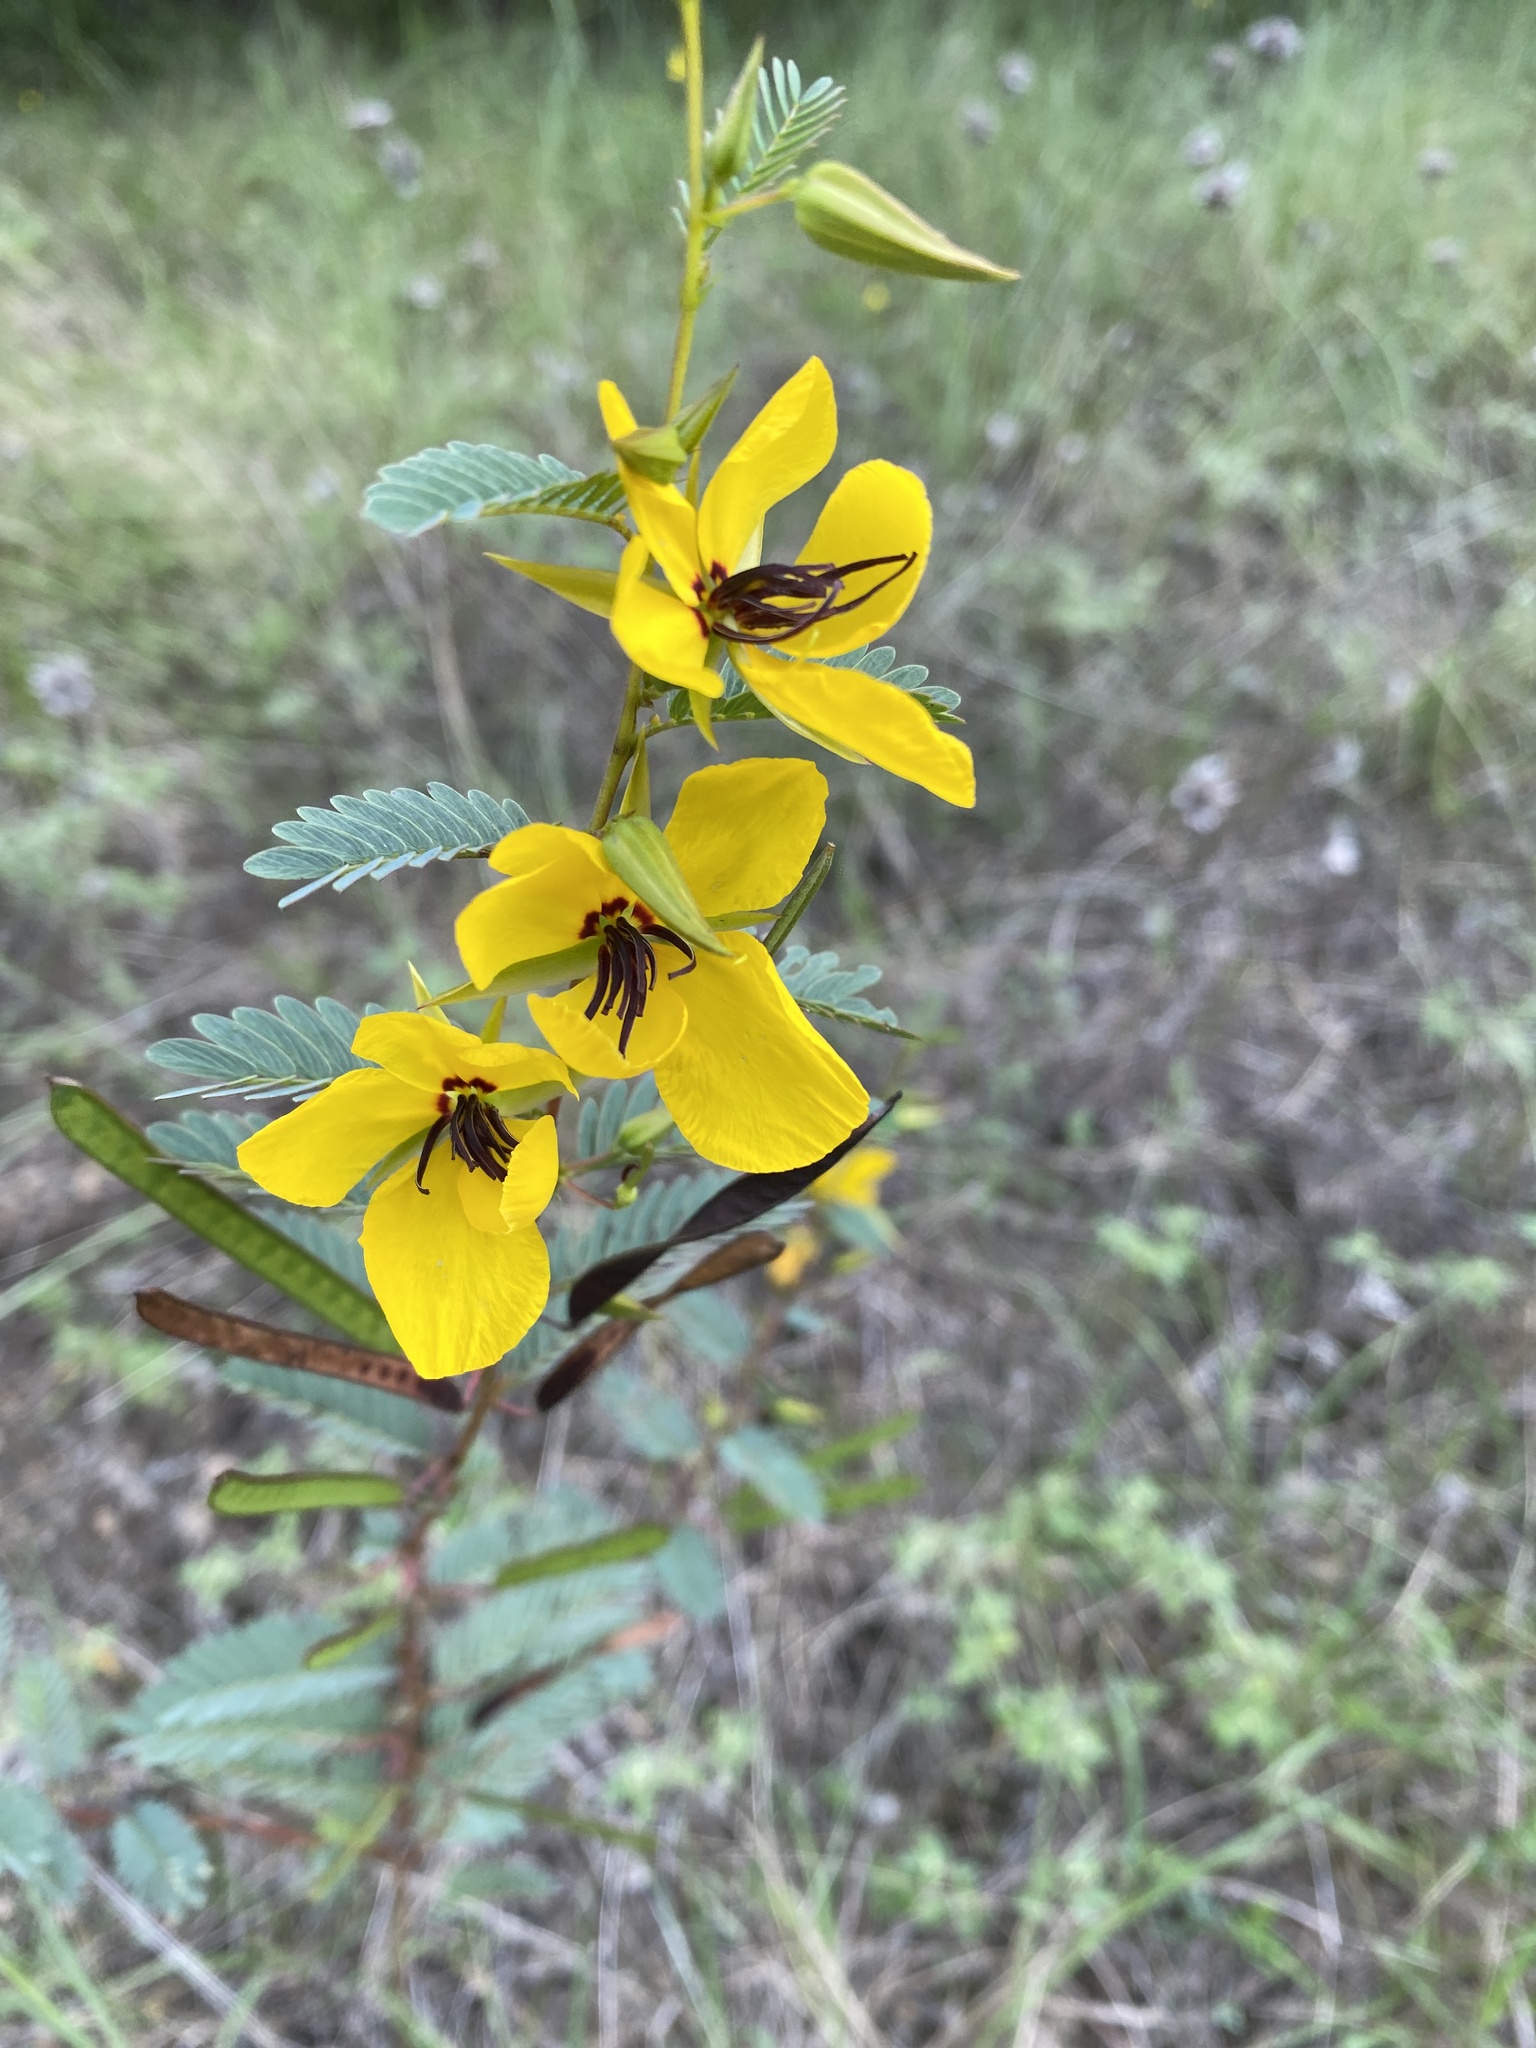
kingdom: Plantae
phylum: Tracheophyta
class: Magnoliopsida
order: Fabales
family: Fabaceae
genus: Chamaecrista
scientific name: Chamaecrista fasciculata
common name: Golden cassia
